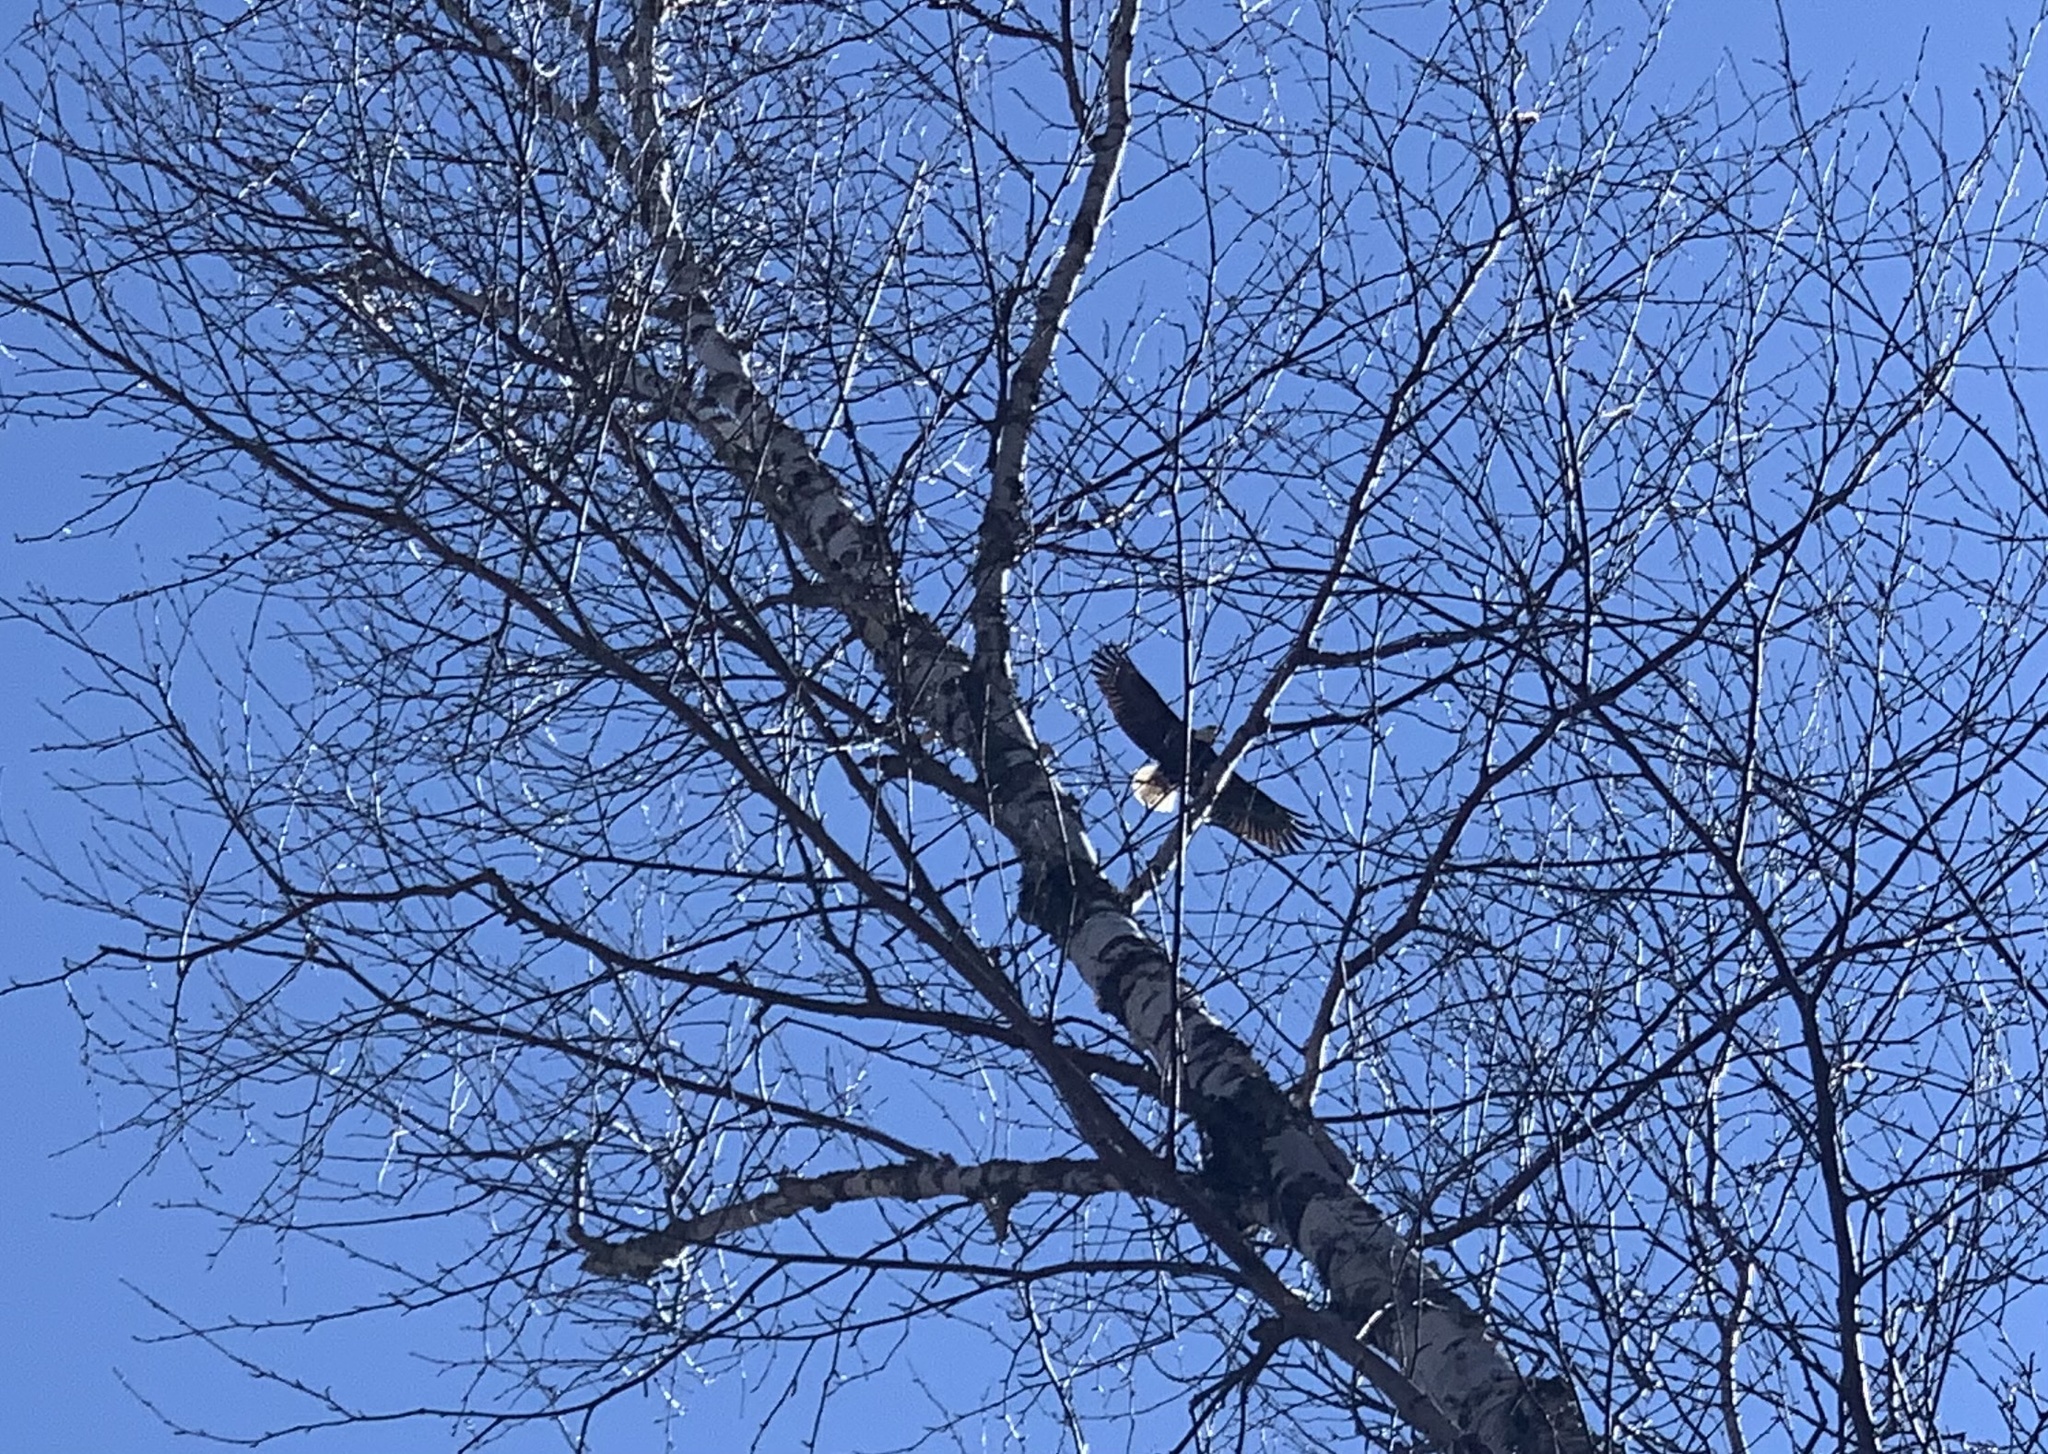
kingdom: Animalia
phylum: Chordata
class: Aves
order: Accipitriformes
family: Accipitridae
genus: Haliaeetus
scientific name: Haliaeetus leucocephalus
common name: Bald eagle
